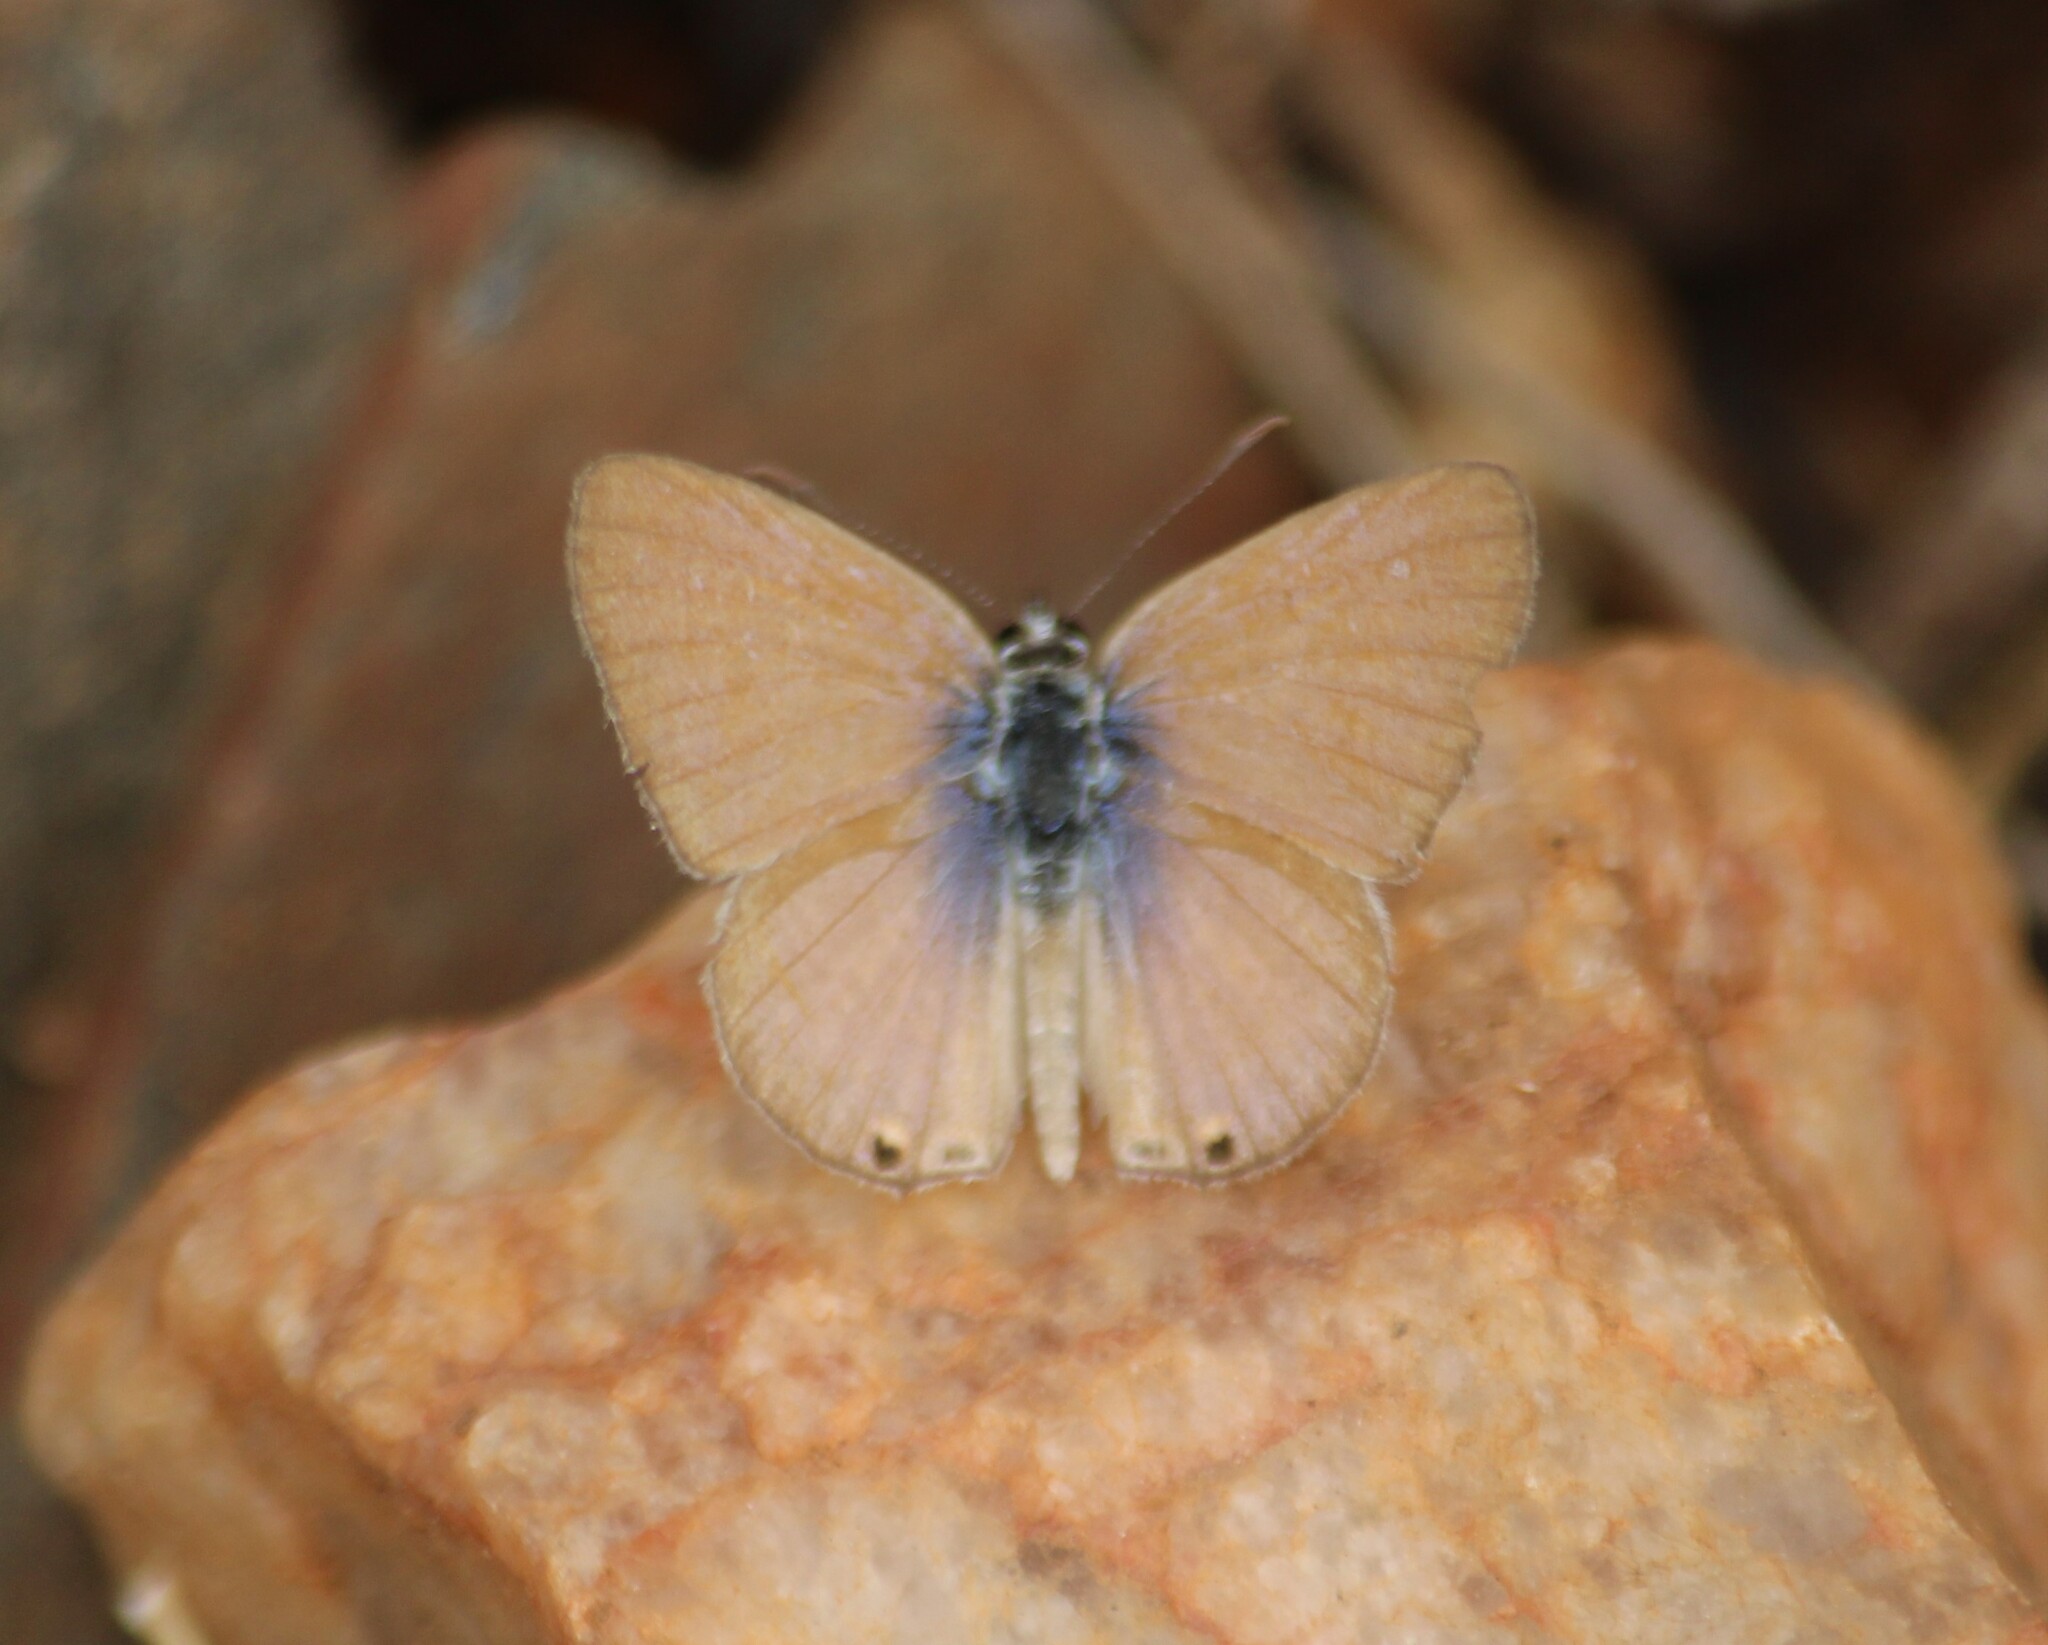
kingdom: Animalia
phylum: Arthropoda
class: Insecta
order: Lepidoptera
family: Lycaenidae
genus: Euchrysops
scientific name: Euchrysops cnejus
